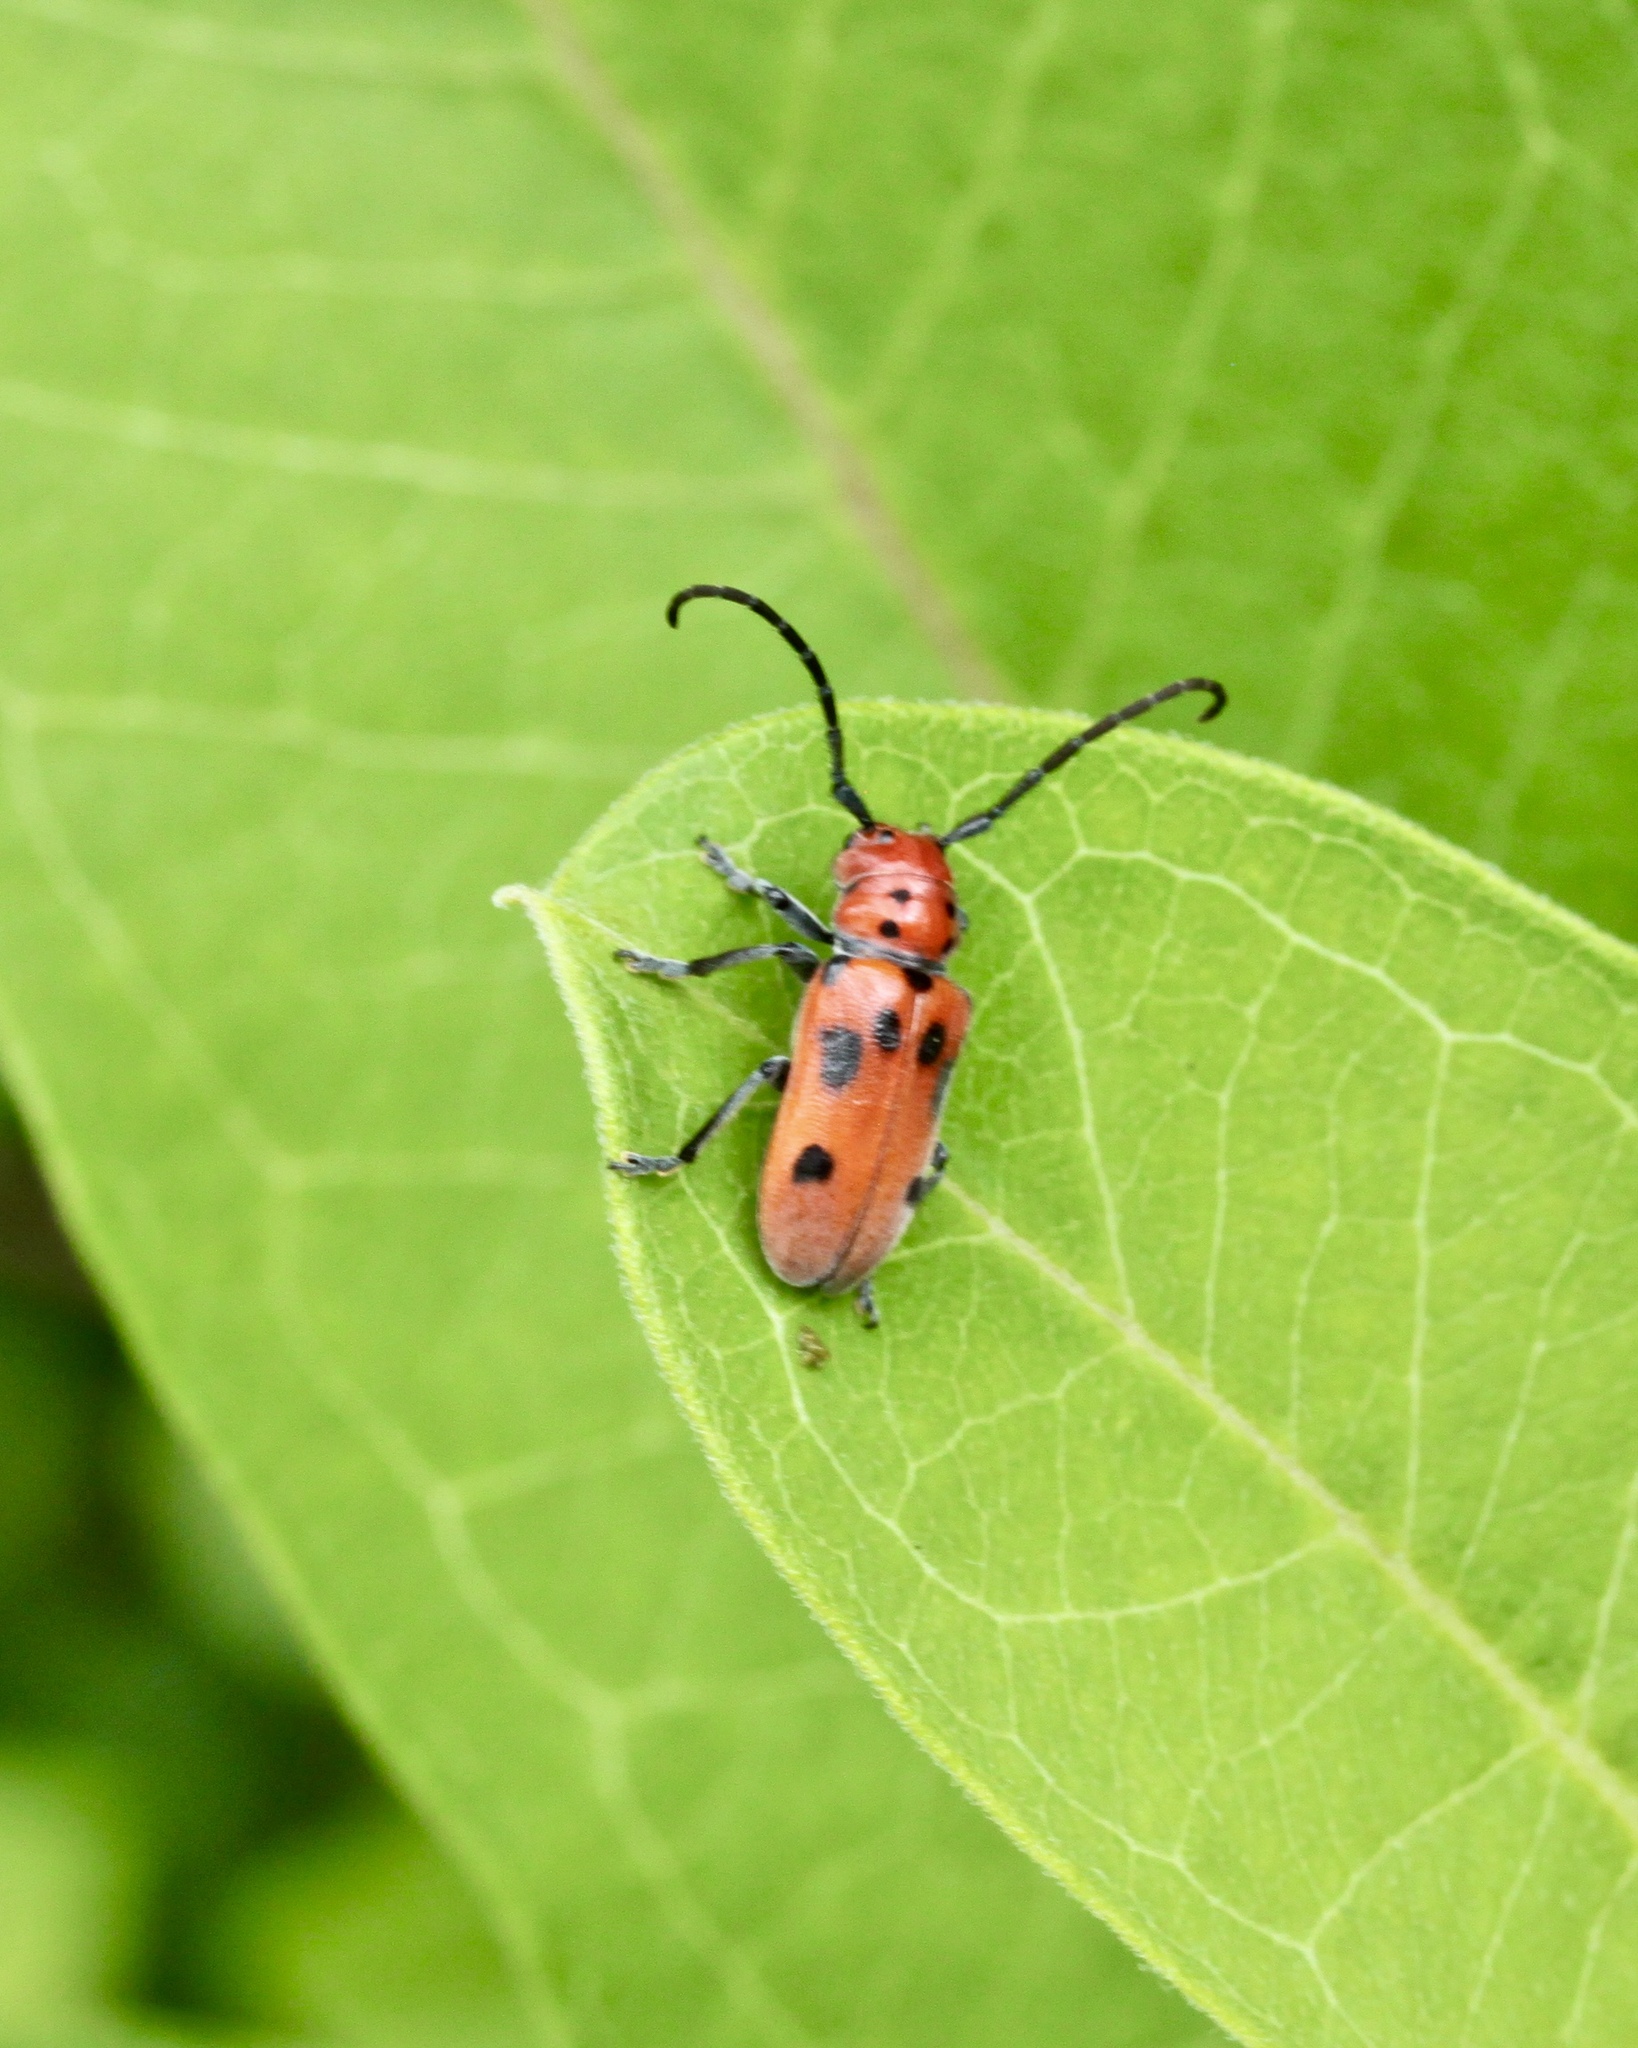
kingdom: Animalia
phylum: Arthropoda
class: Insecta
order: Coleoptera
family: Cerambycidae
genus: Tetraopes
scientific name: Tetraopes tetrophthalmus
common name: Red milkweed beetle
